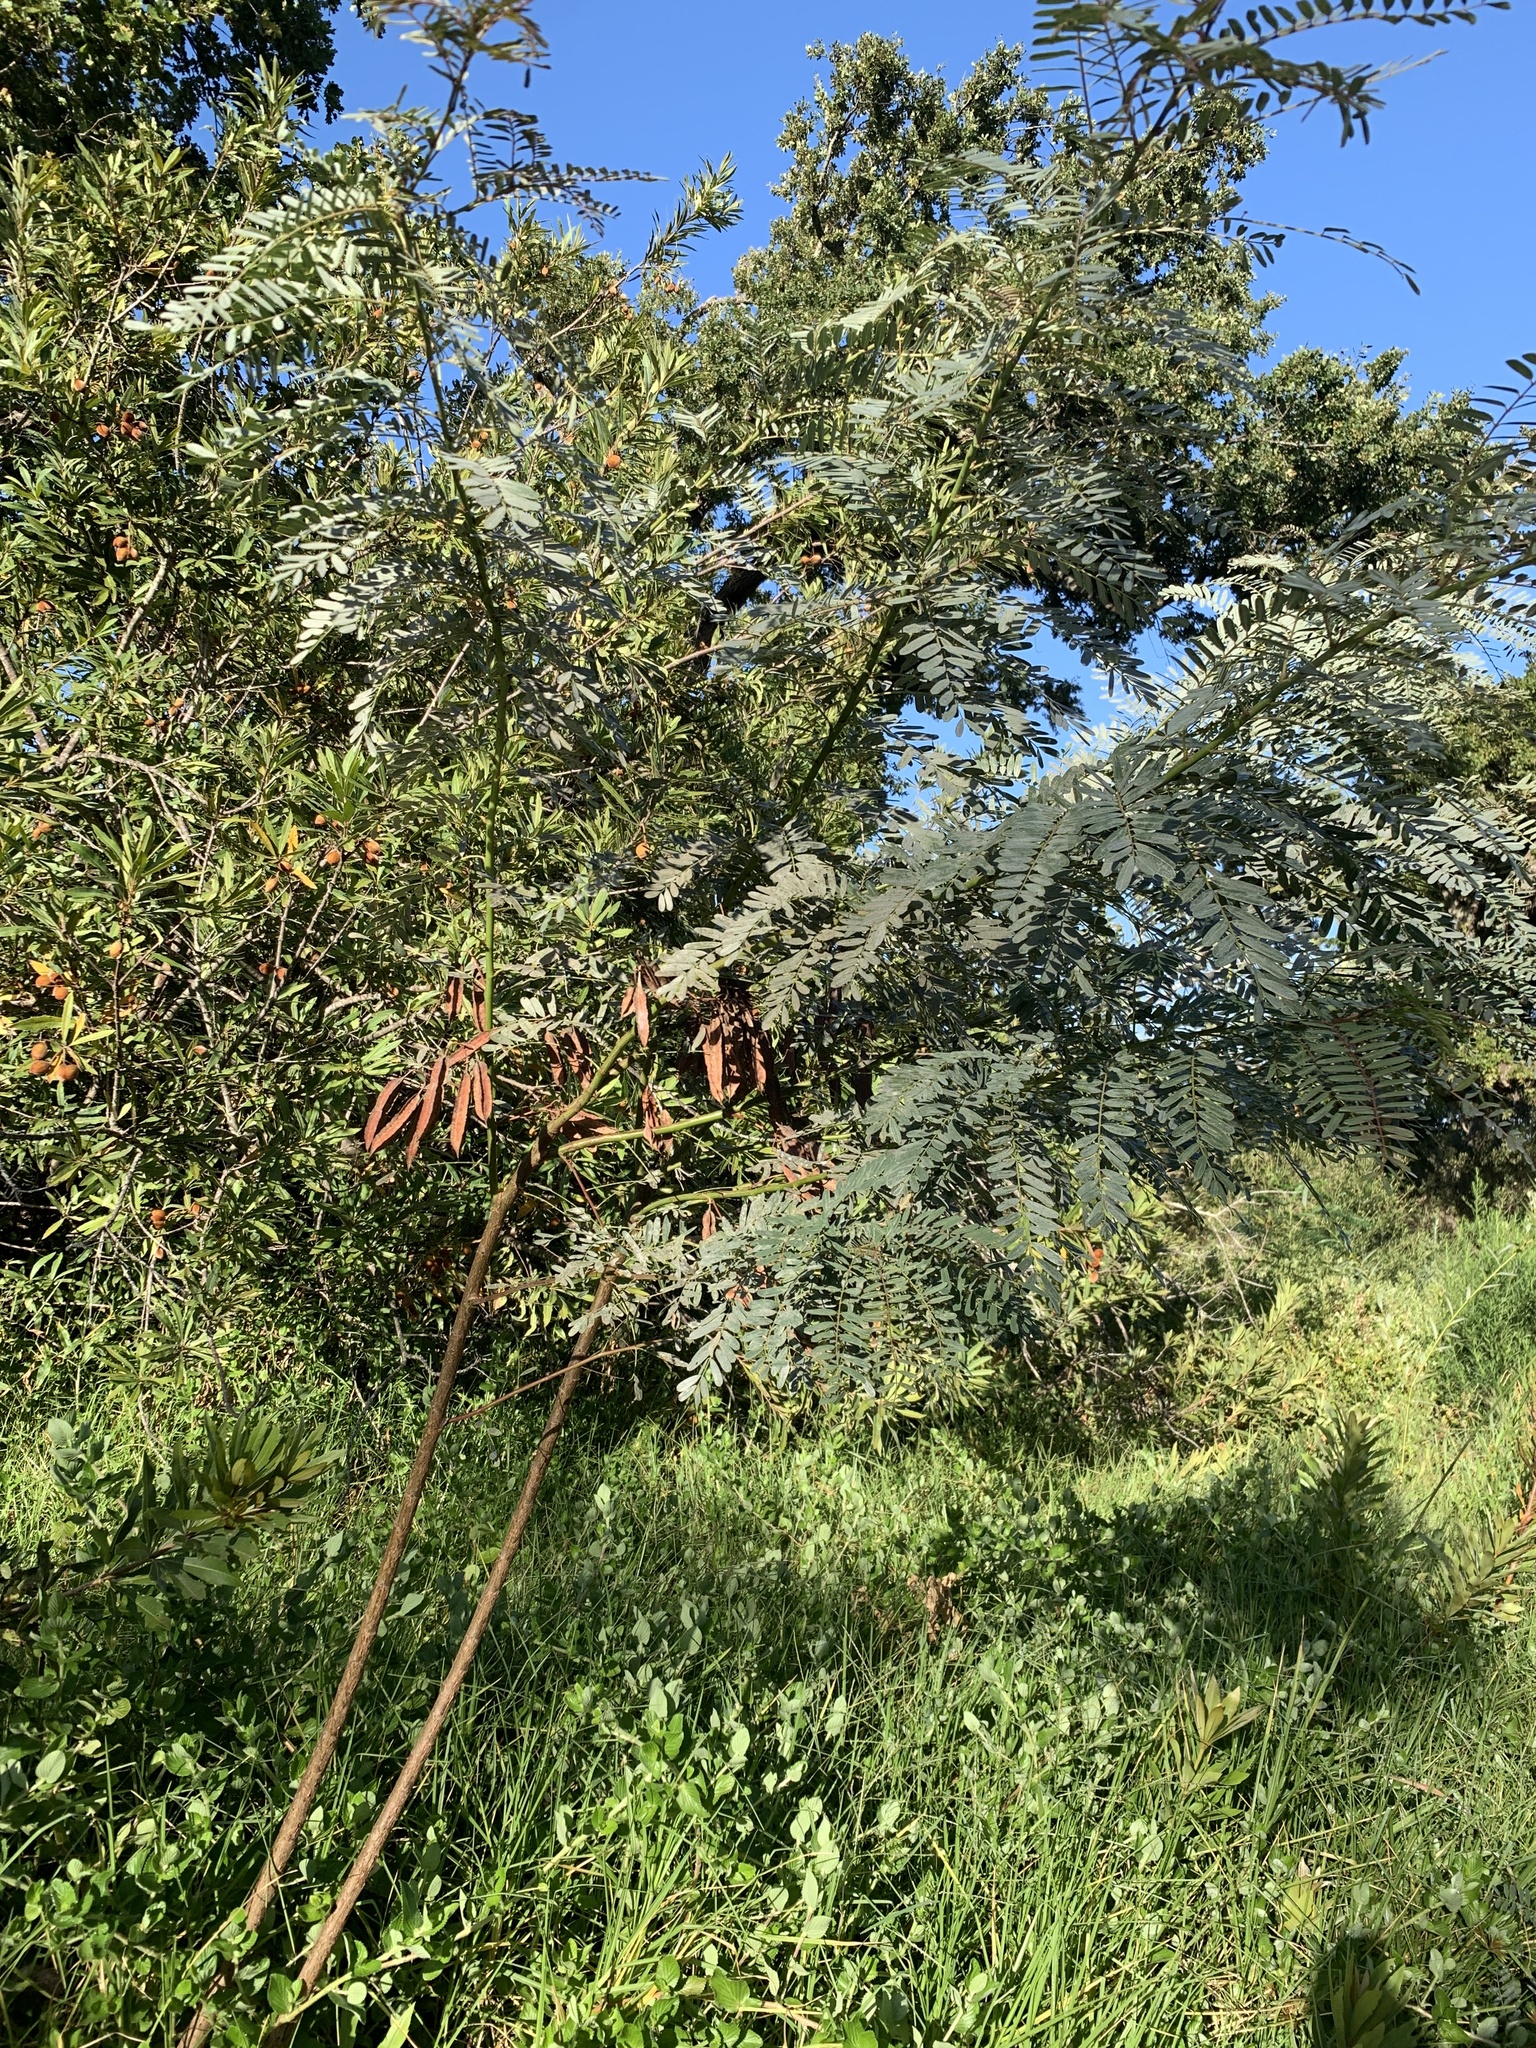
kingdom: Plantae
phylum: Tracheophyta
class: Magnoliopsida
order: Fabales
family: Fabaceae
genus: Sesbania
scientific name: Sesbania punicea
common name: Rattlebox
